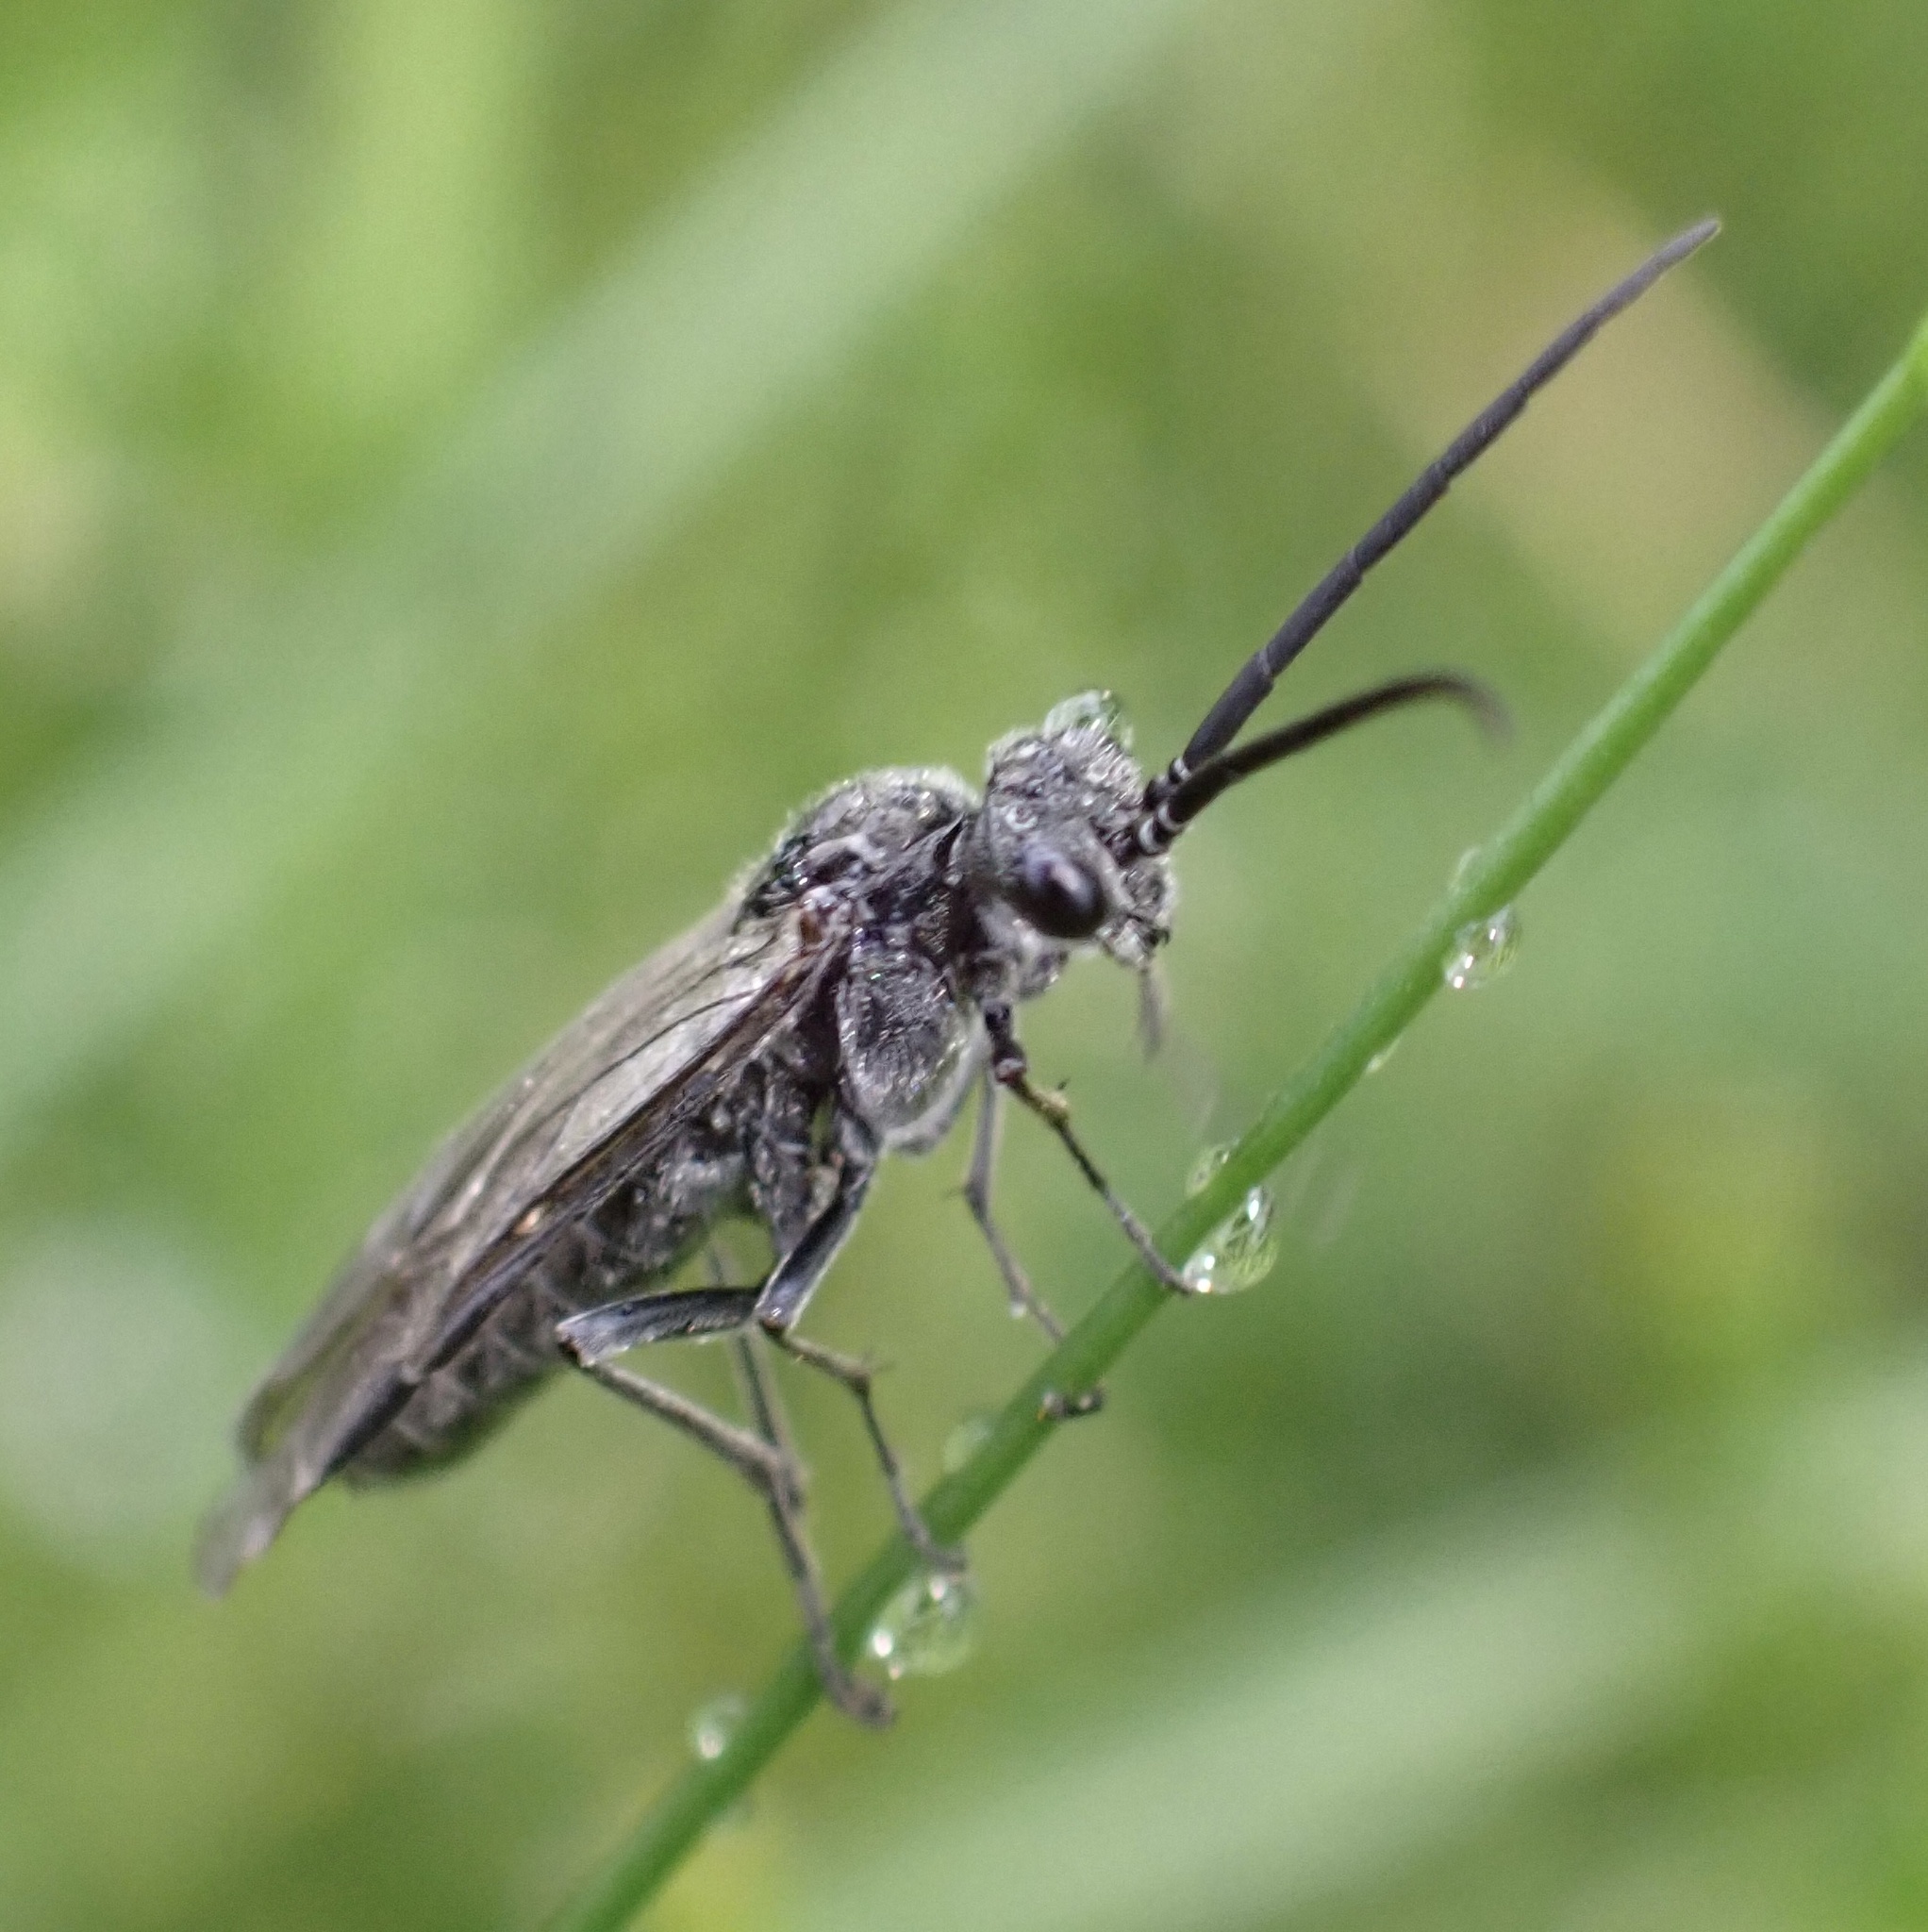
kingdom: Animalia
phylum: Arthropoda
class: Insecta
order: Hymenoptera
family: Tenthredinidae
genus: Dolerus
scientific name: Dolerus aeneus
